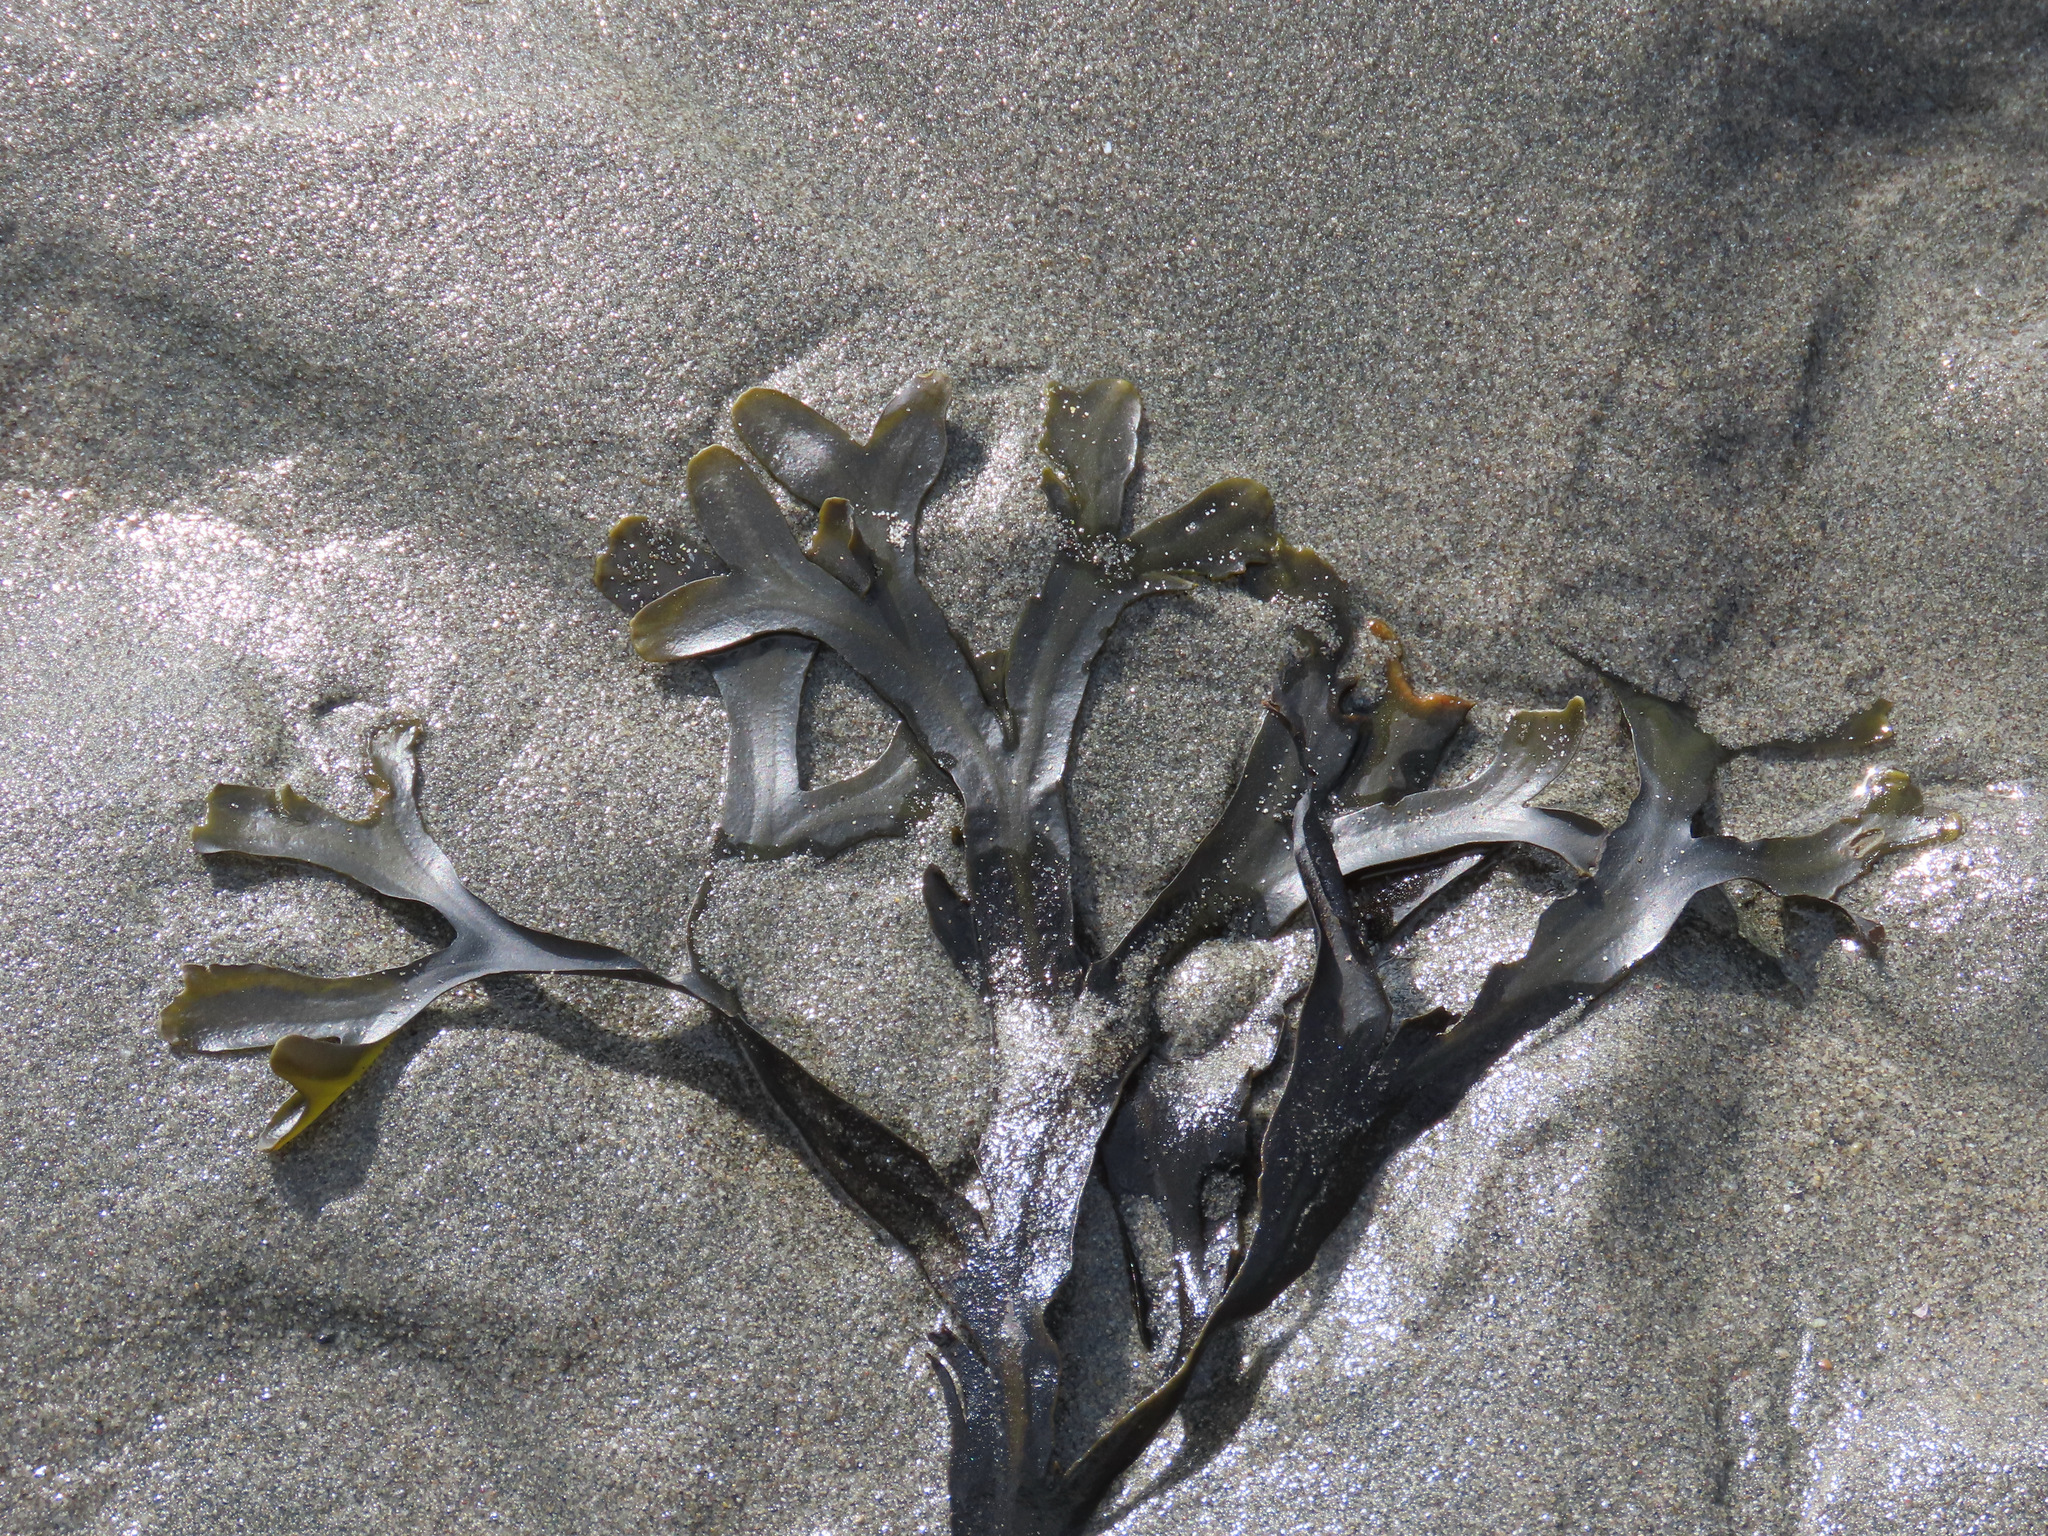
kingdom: Chromista
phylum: Ochrophyta
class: Phaeophyceae
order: Fucales
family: Fucaceae
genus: Fucus
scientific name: Fucus distichus
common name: Rockweed
